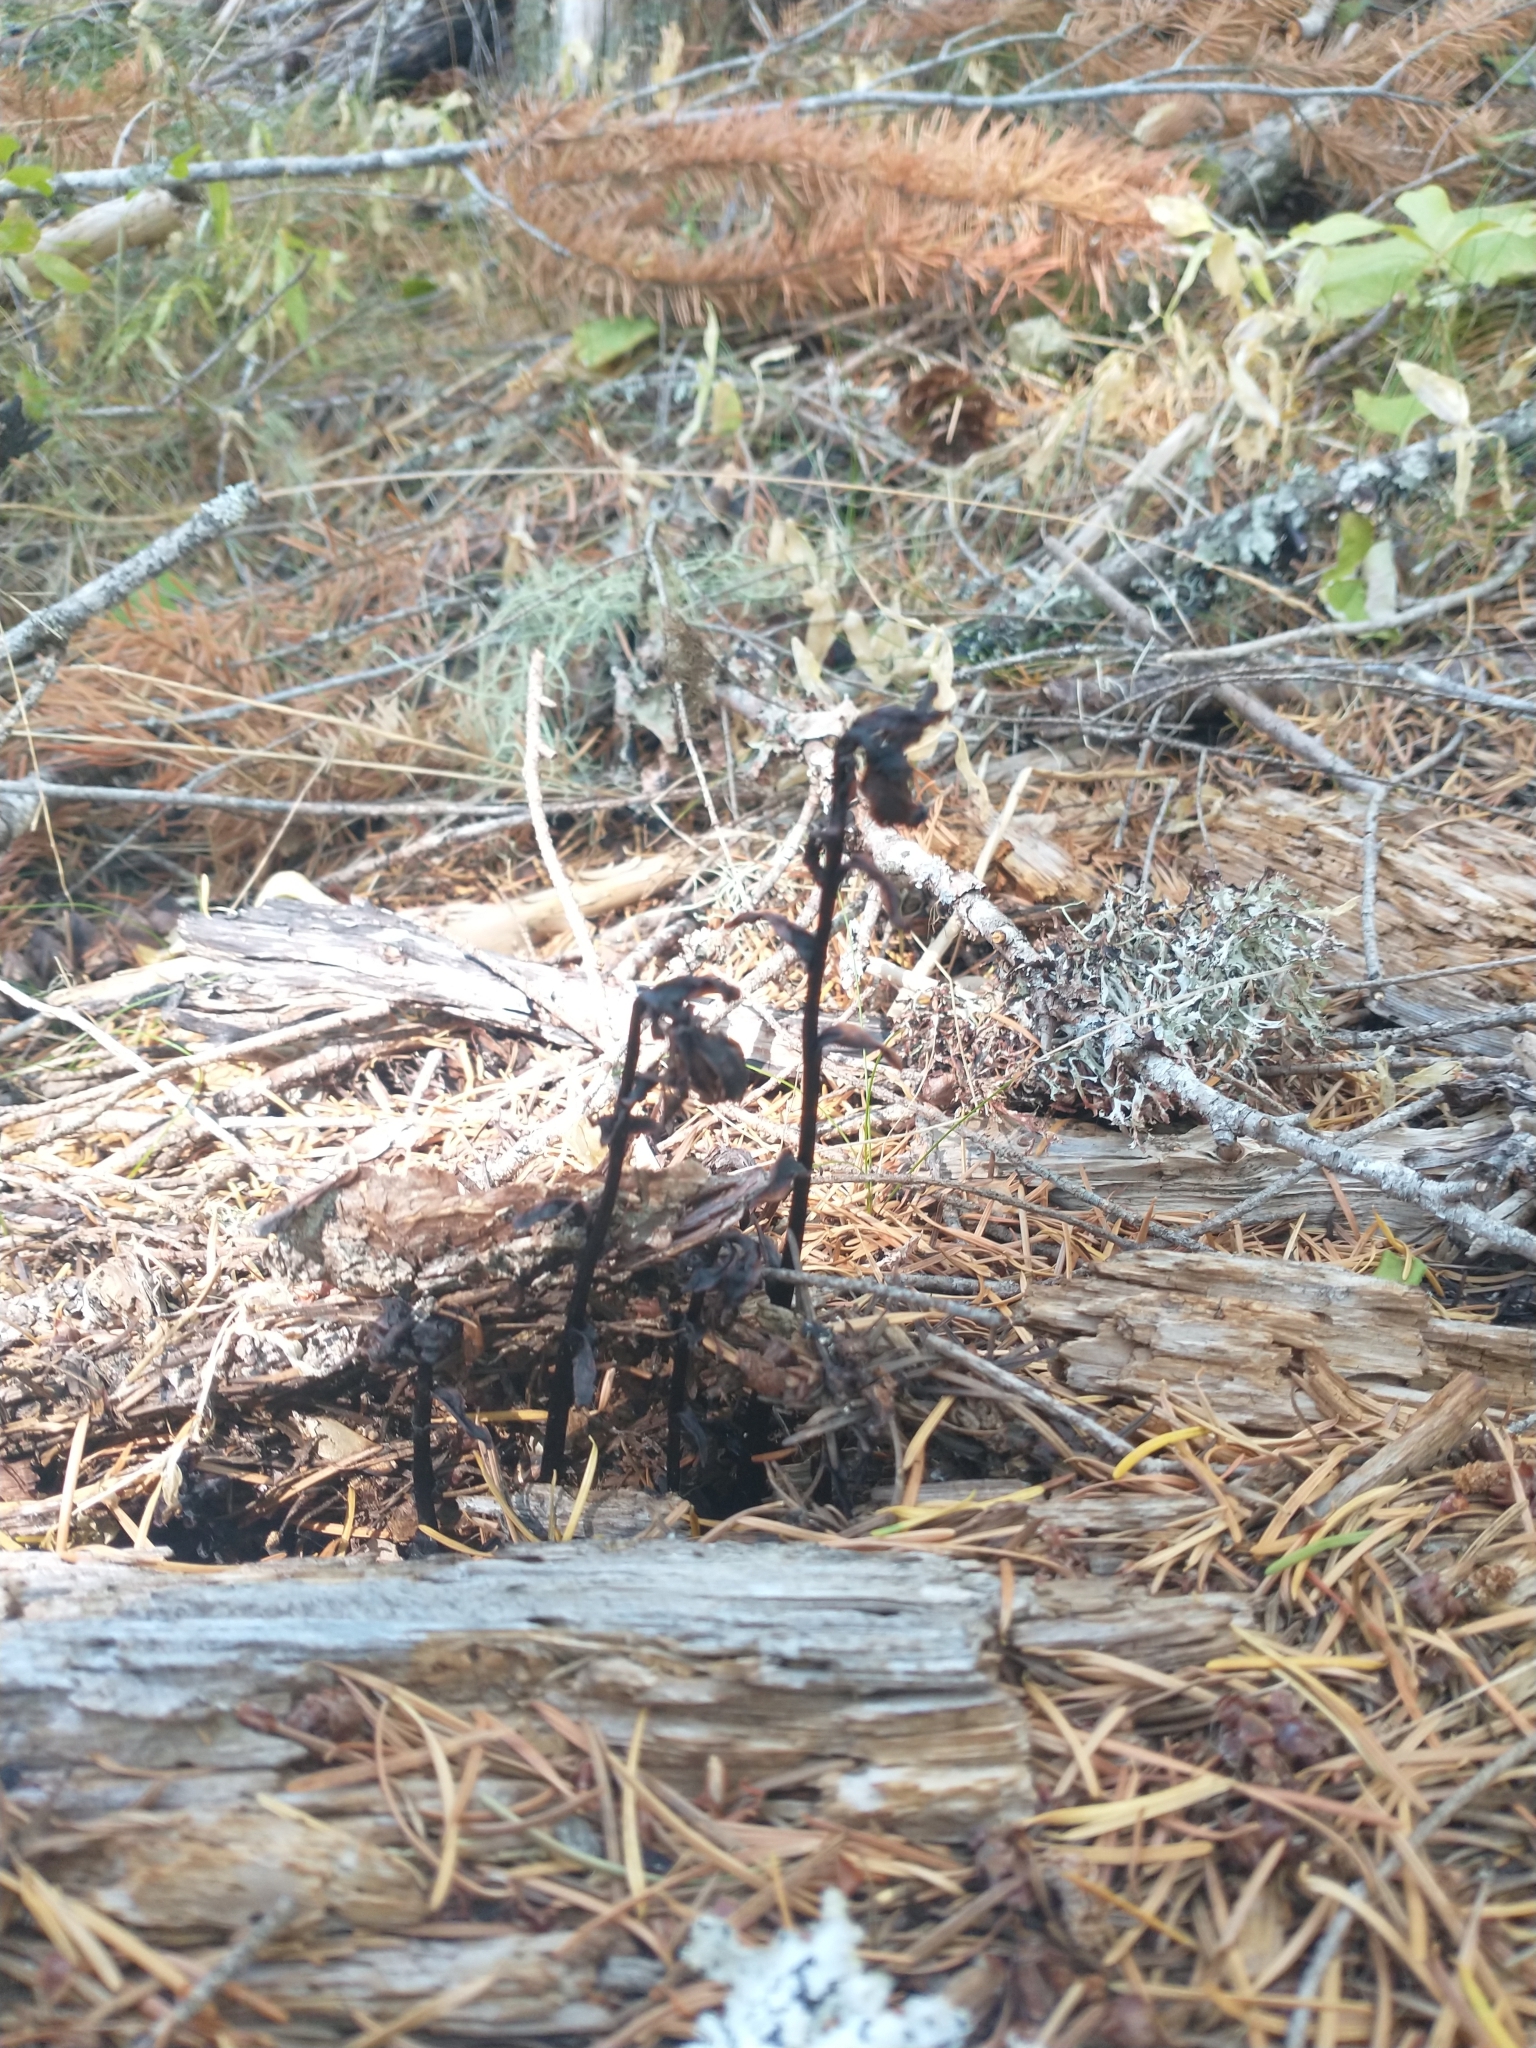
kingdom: Plantae
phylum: Tracheophyta
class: Magnoliopsida
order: Ericales
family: Ericaceae
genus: Monotropa
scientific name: Monotropa uniflora
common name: Convulsion root
